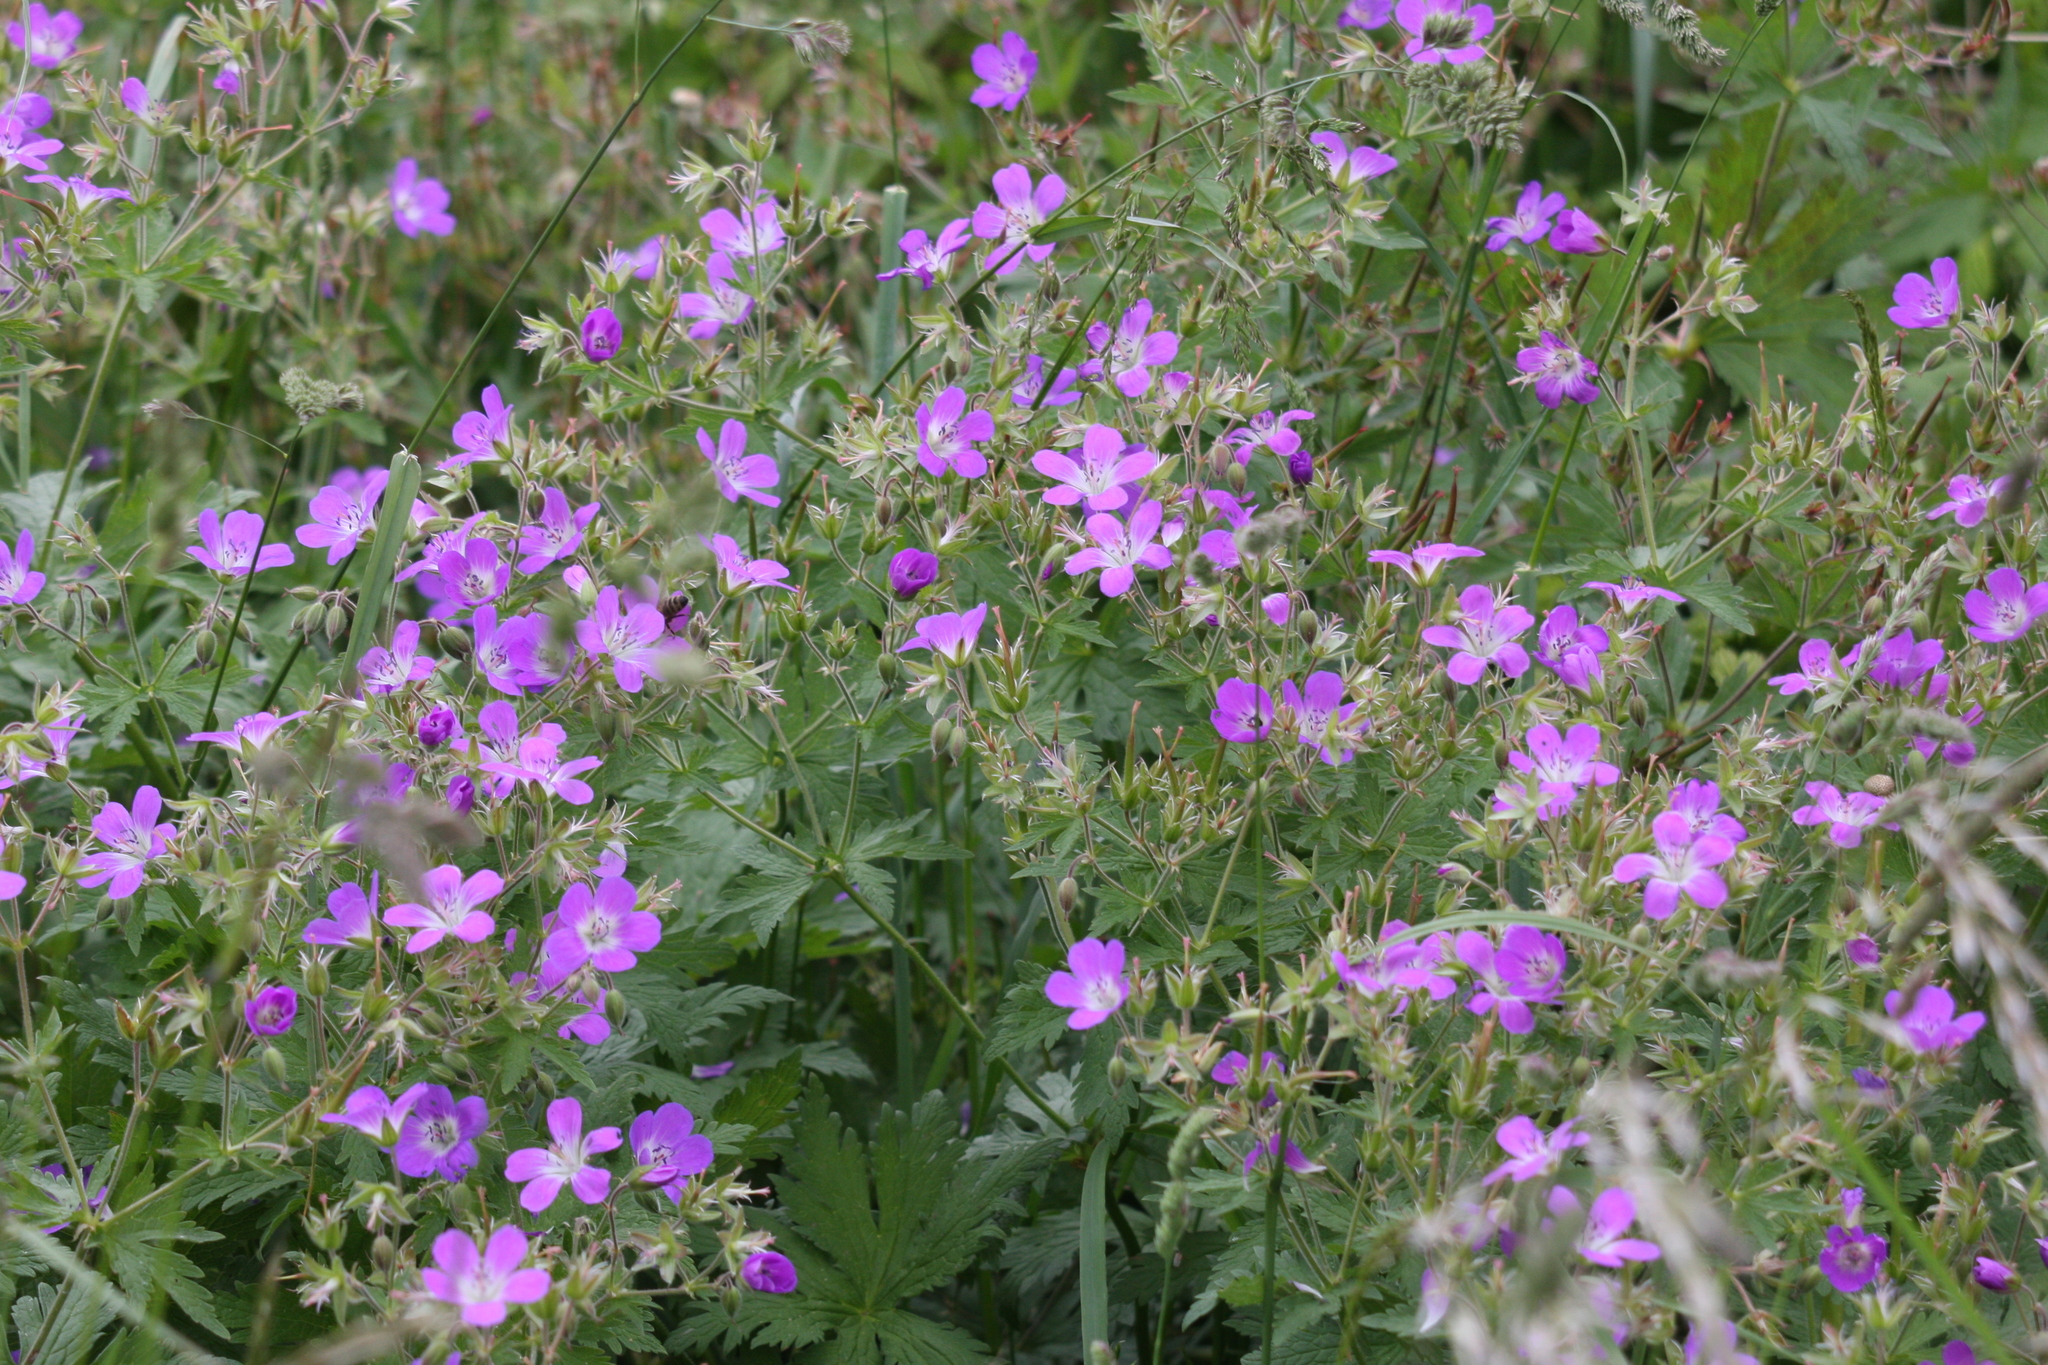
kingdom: Plantae
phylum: Tracheophyta
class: Magnoliopsida
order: Geraniales
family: Geraniaceae
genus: Geranium
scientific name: Geranium sylvaticum
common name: Wood crane's-bill
